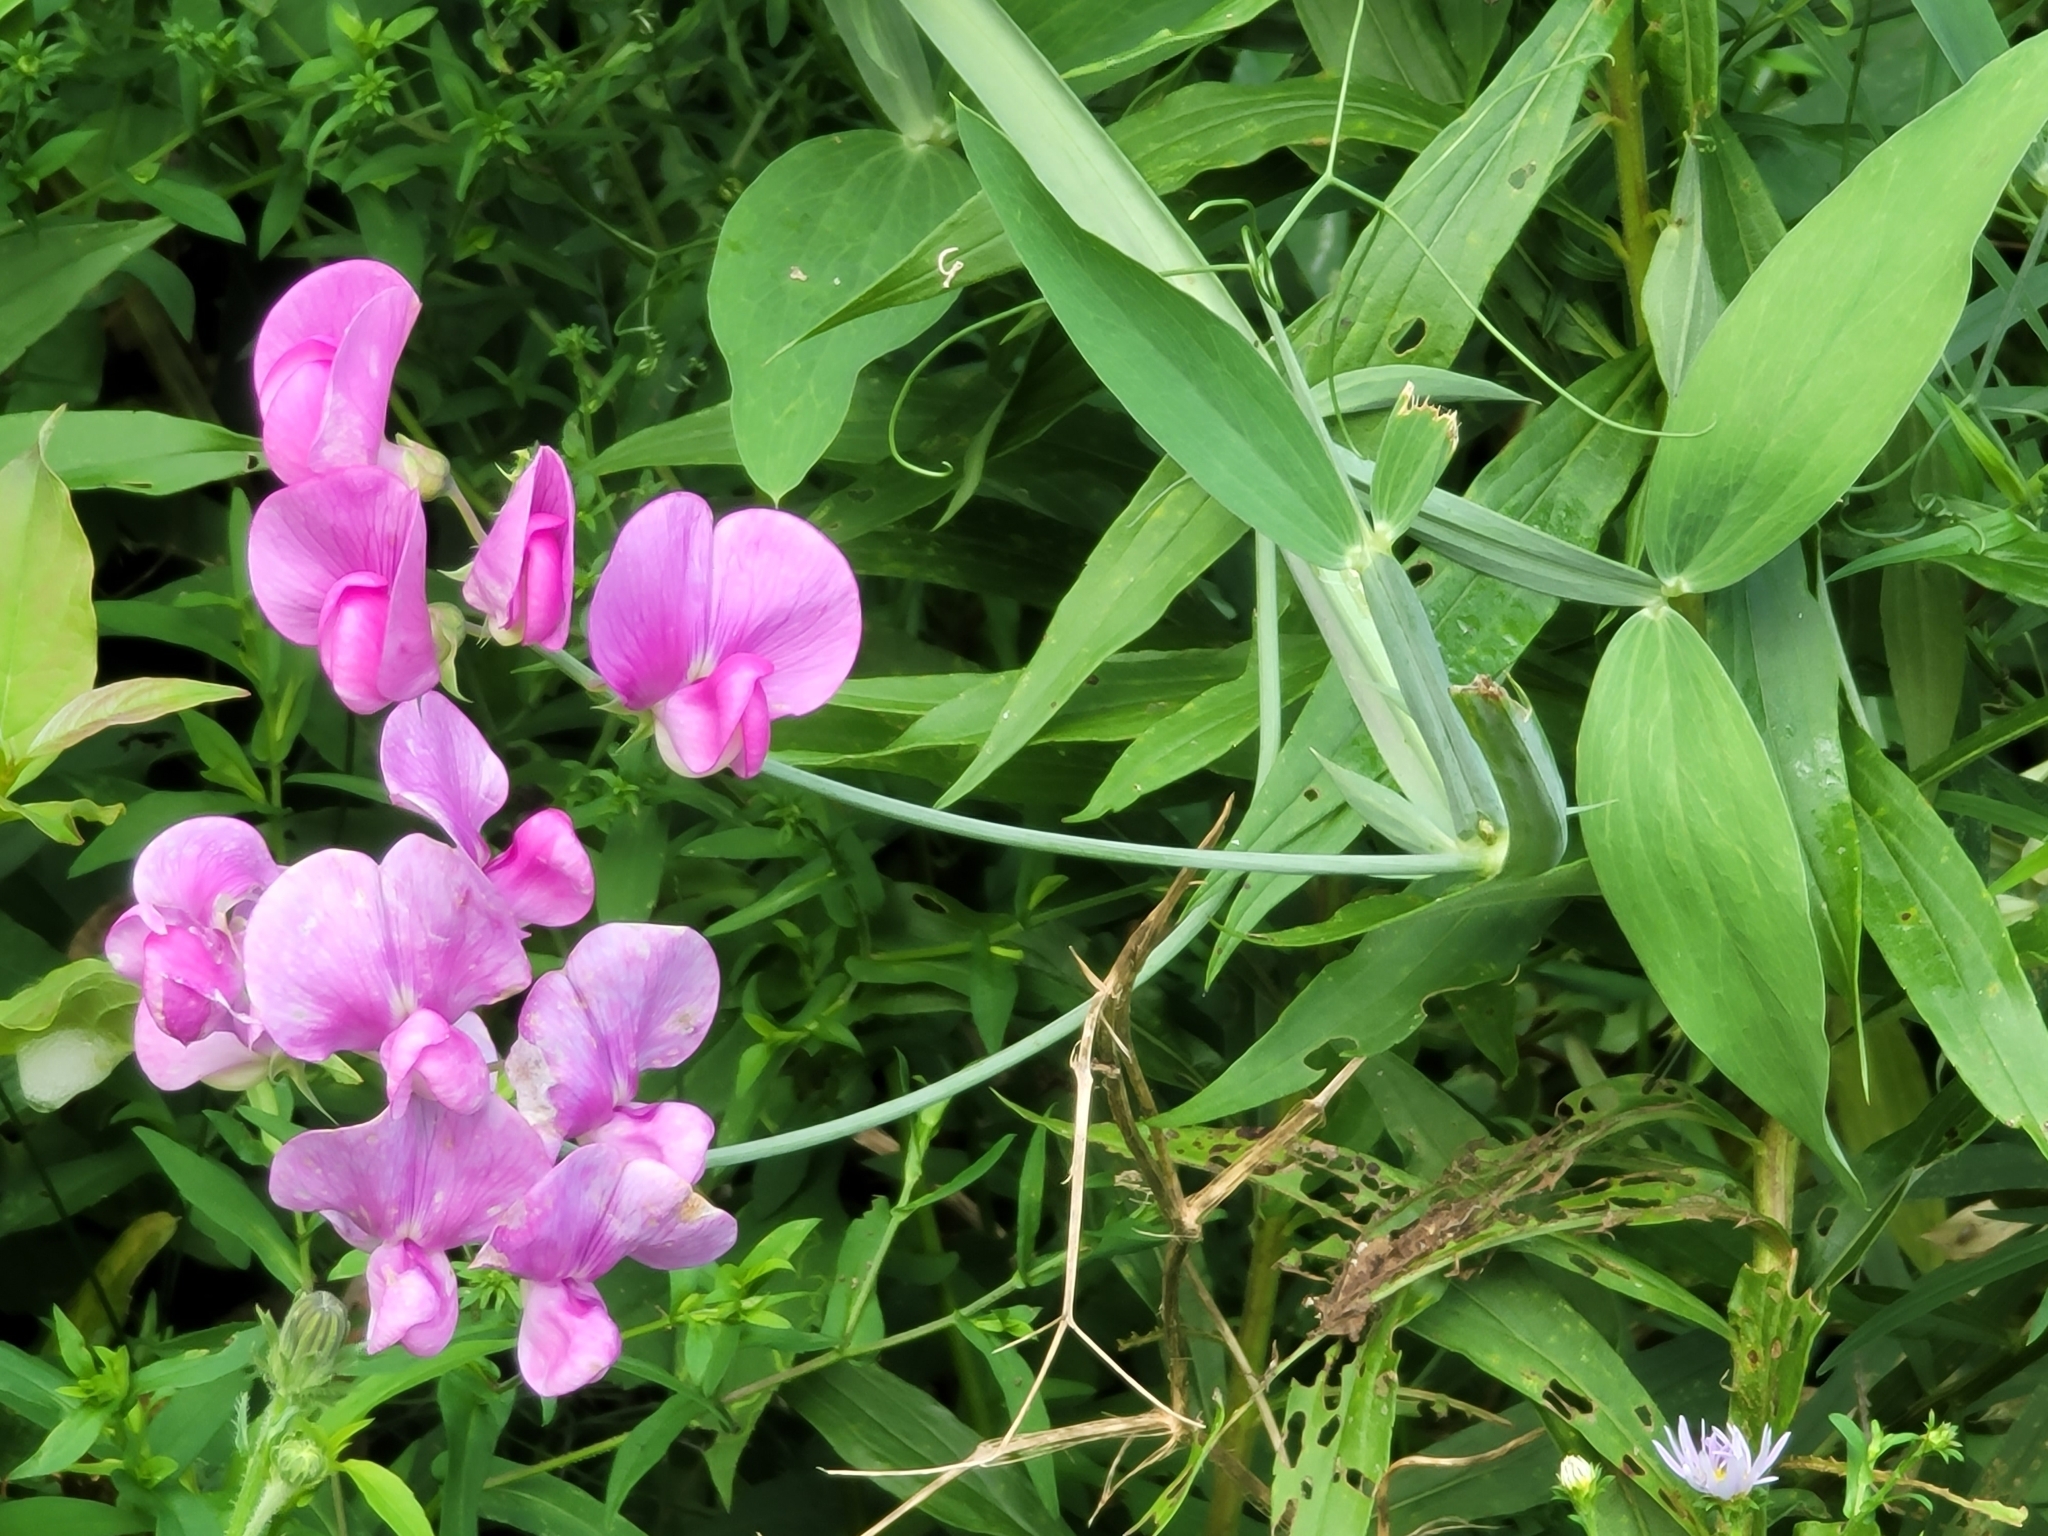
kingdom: Plantae
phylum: Tracheophyta
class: Magnoliopsida
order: Fabales
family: Fabaceae
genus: Lathyrus
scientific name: Lathyrus latifolius
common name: Perennial pea
